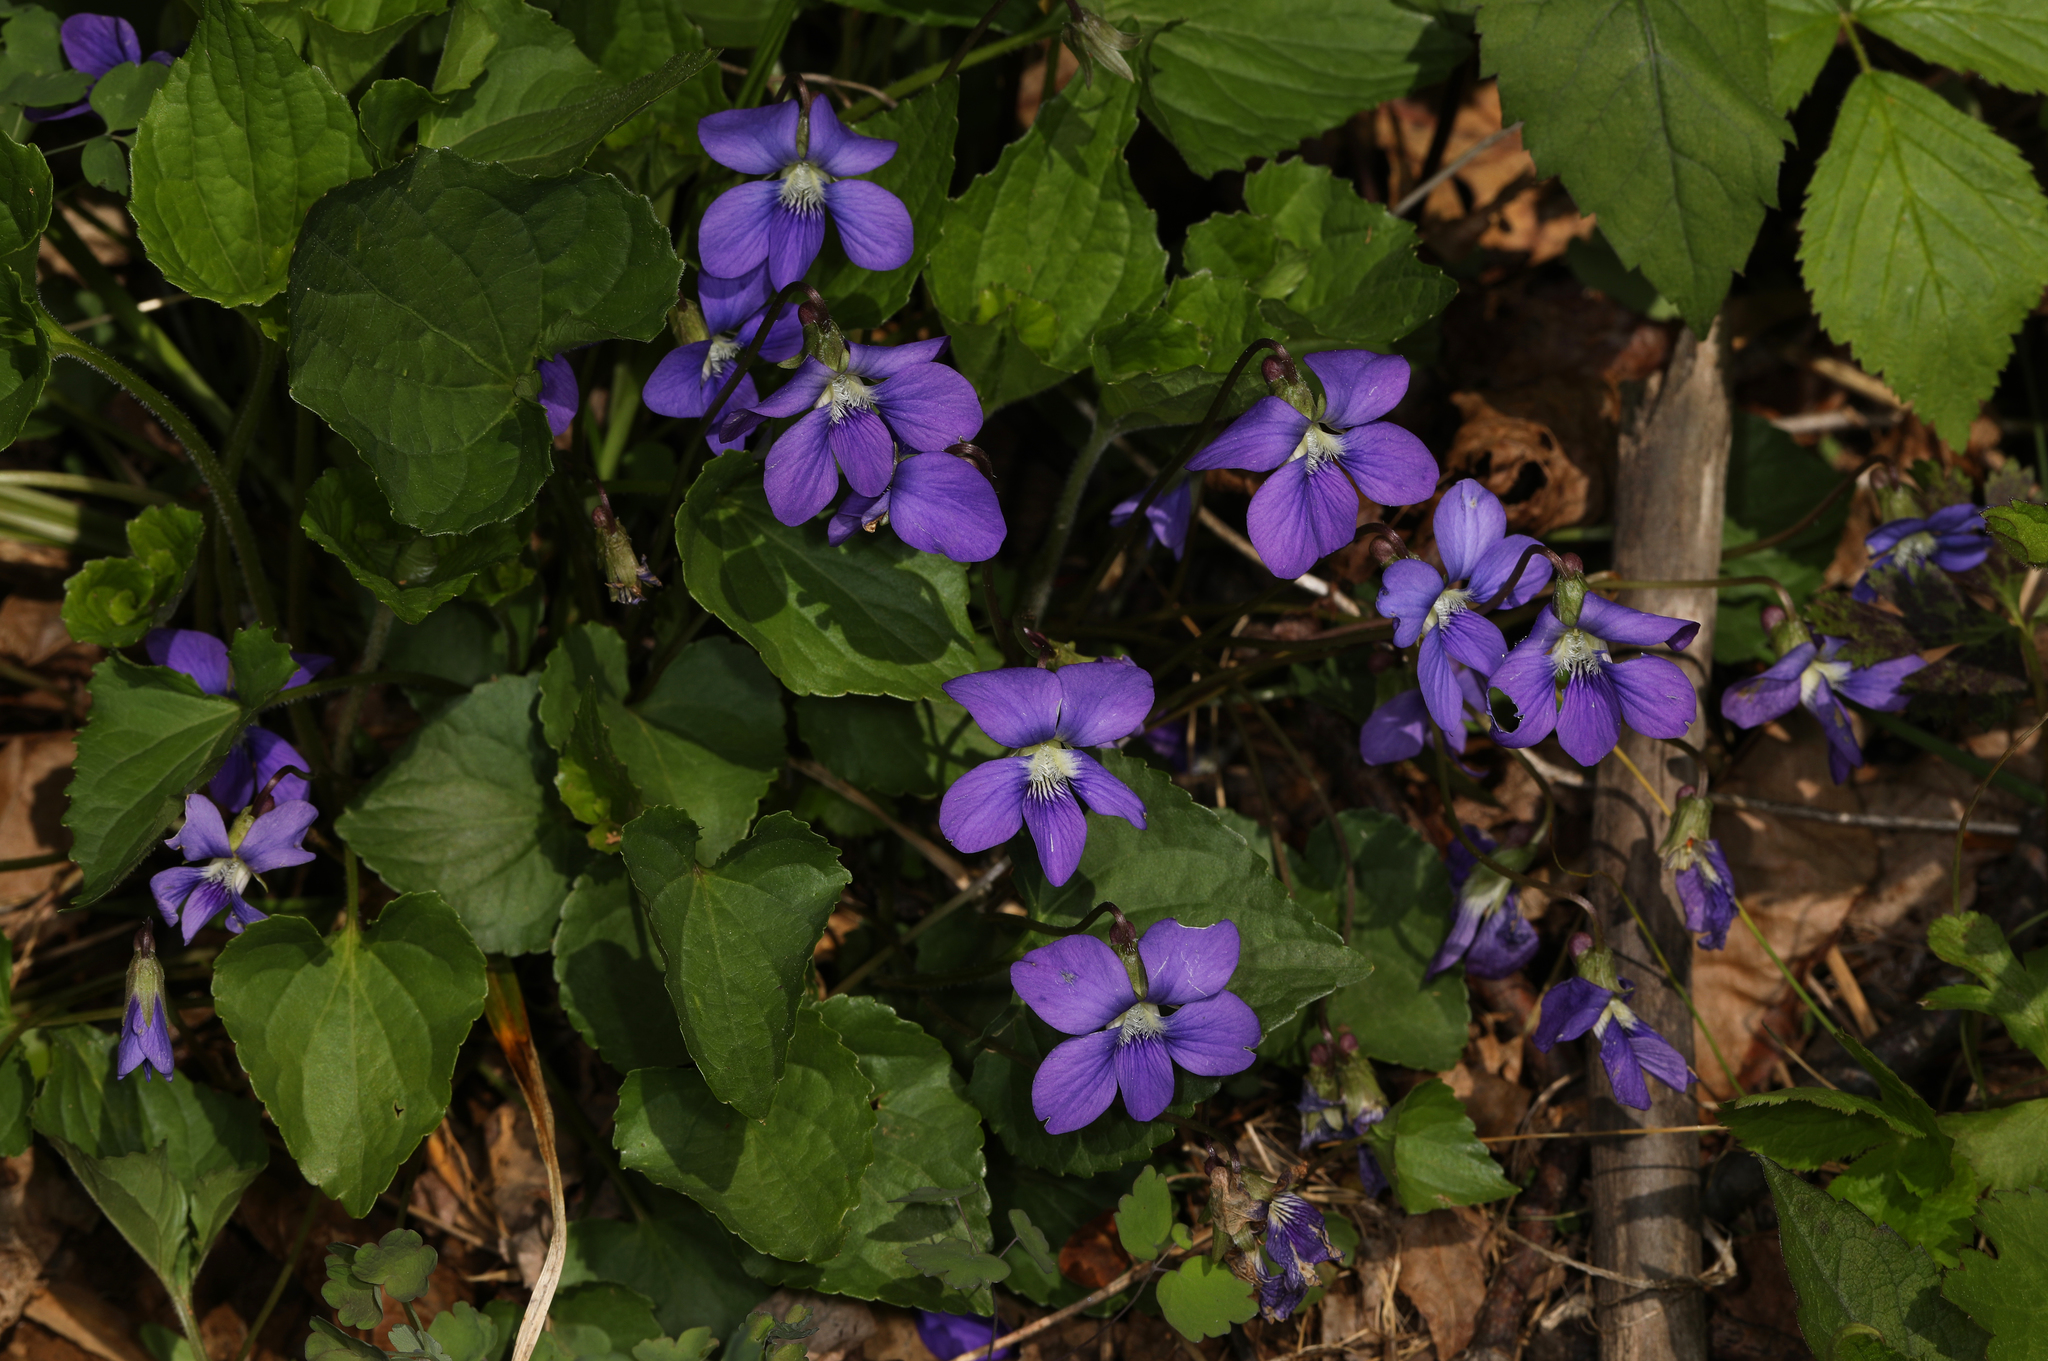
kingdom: Plantae
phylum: Tracheophyta
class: Magnoliopsida
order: Malpighiales
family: Violaceae
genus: Viola
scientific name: Viola sororia
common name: Dooryard violet
